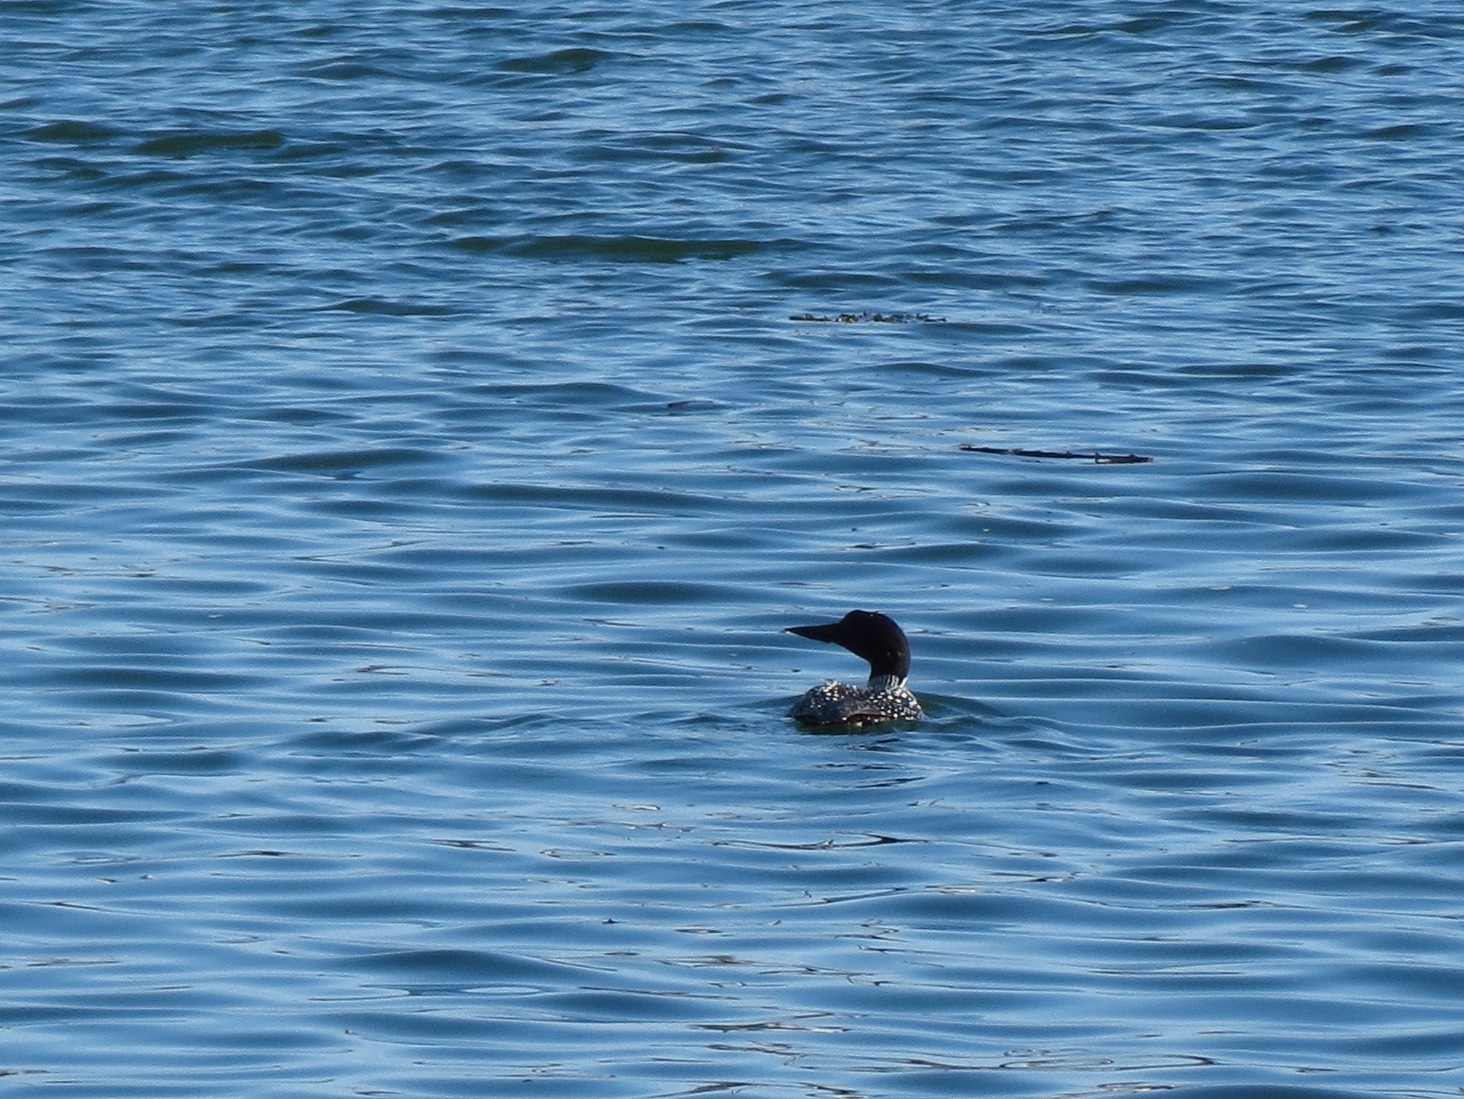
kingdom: Animalia
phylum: Chordata
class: Aves
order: Gaviiformes
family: Gaviidae
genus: Gavia
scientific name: Gavia immer
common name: Common loon
